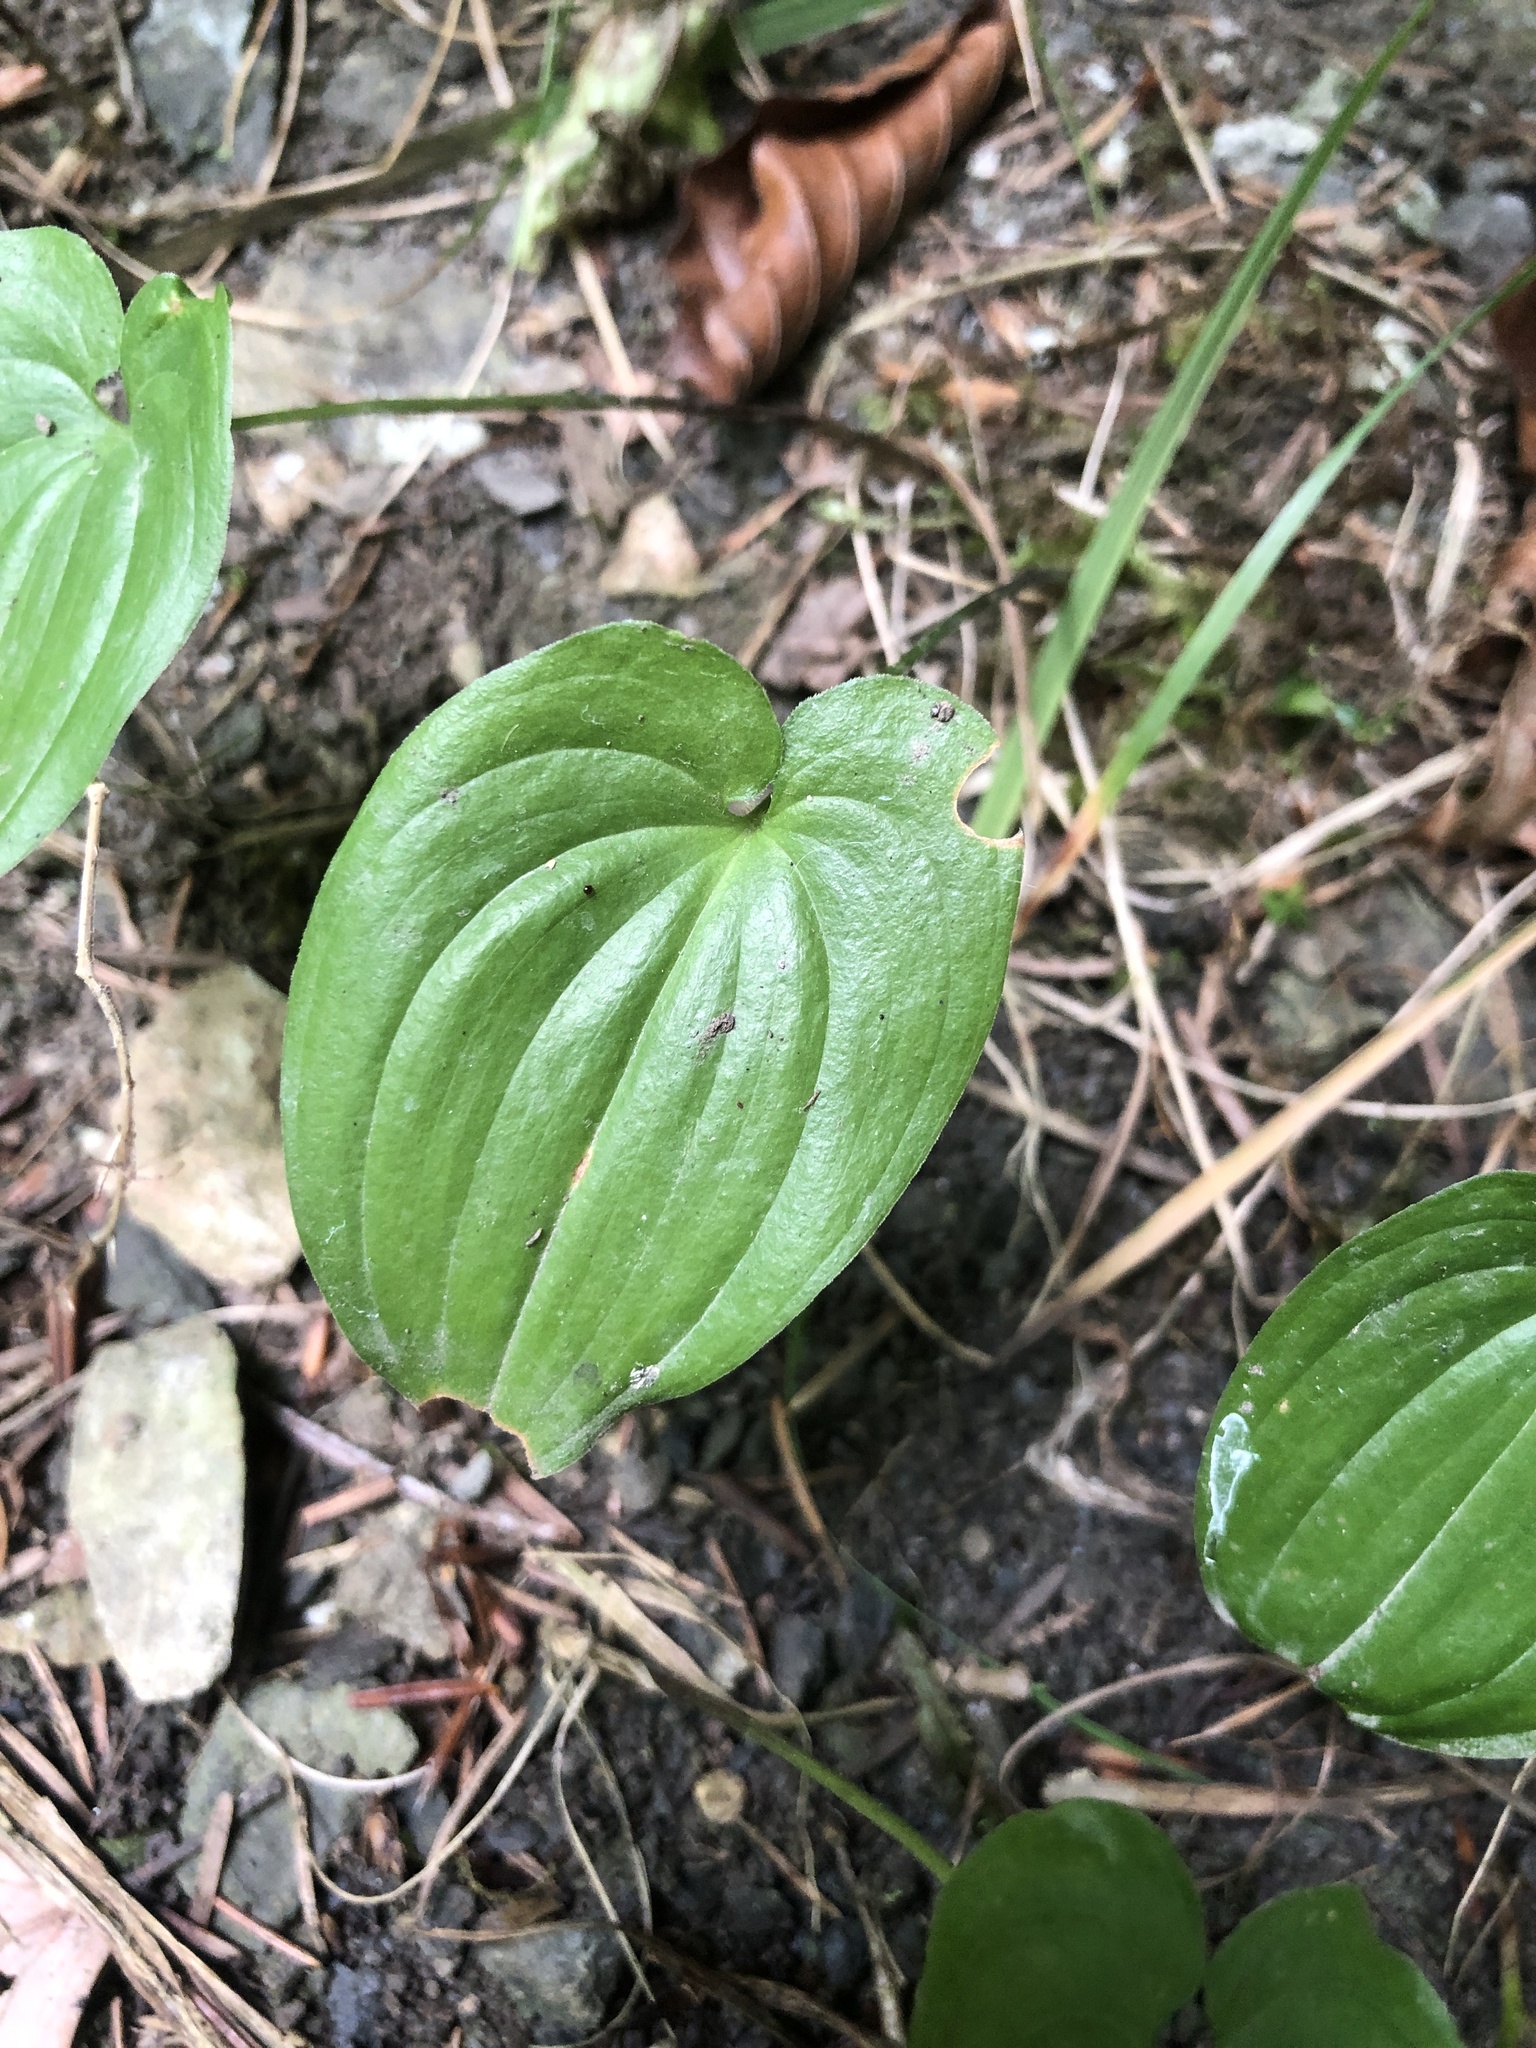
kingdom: Plantae
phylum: Tracheophyta
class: Liliopsida
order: Asparagales
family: Asparagaceae
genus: Maianthemum
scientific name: Maianthemum bifolium
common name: May lily
